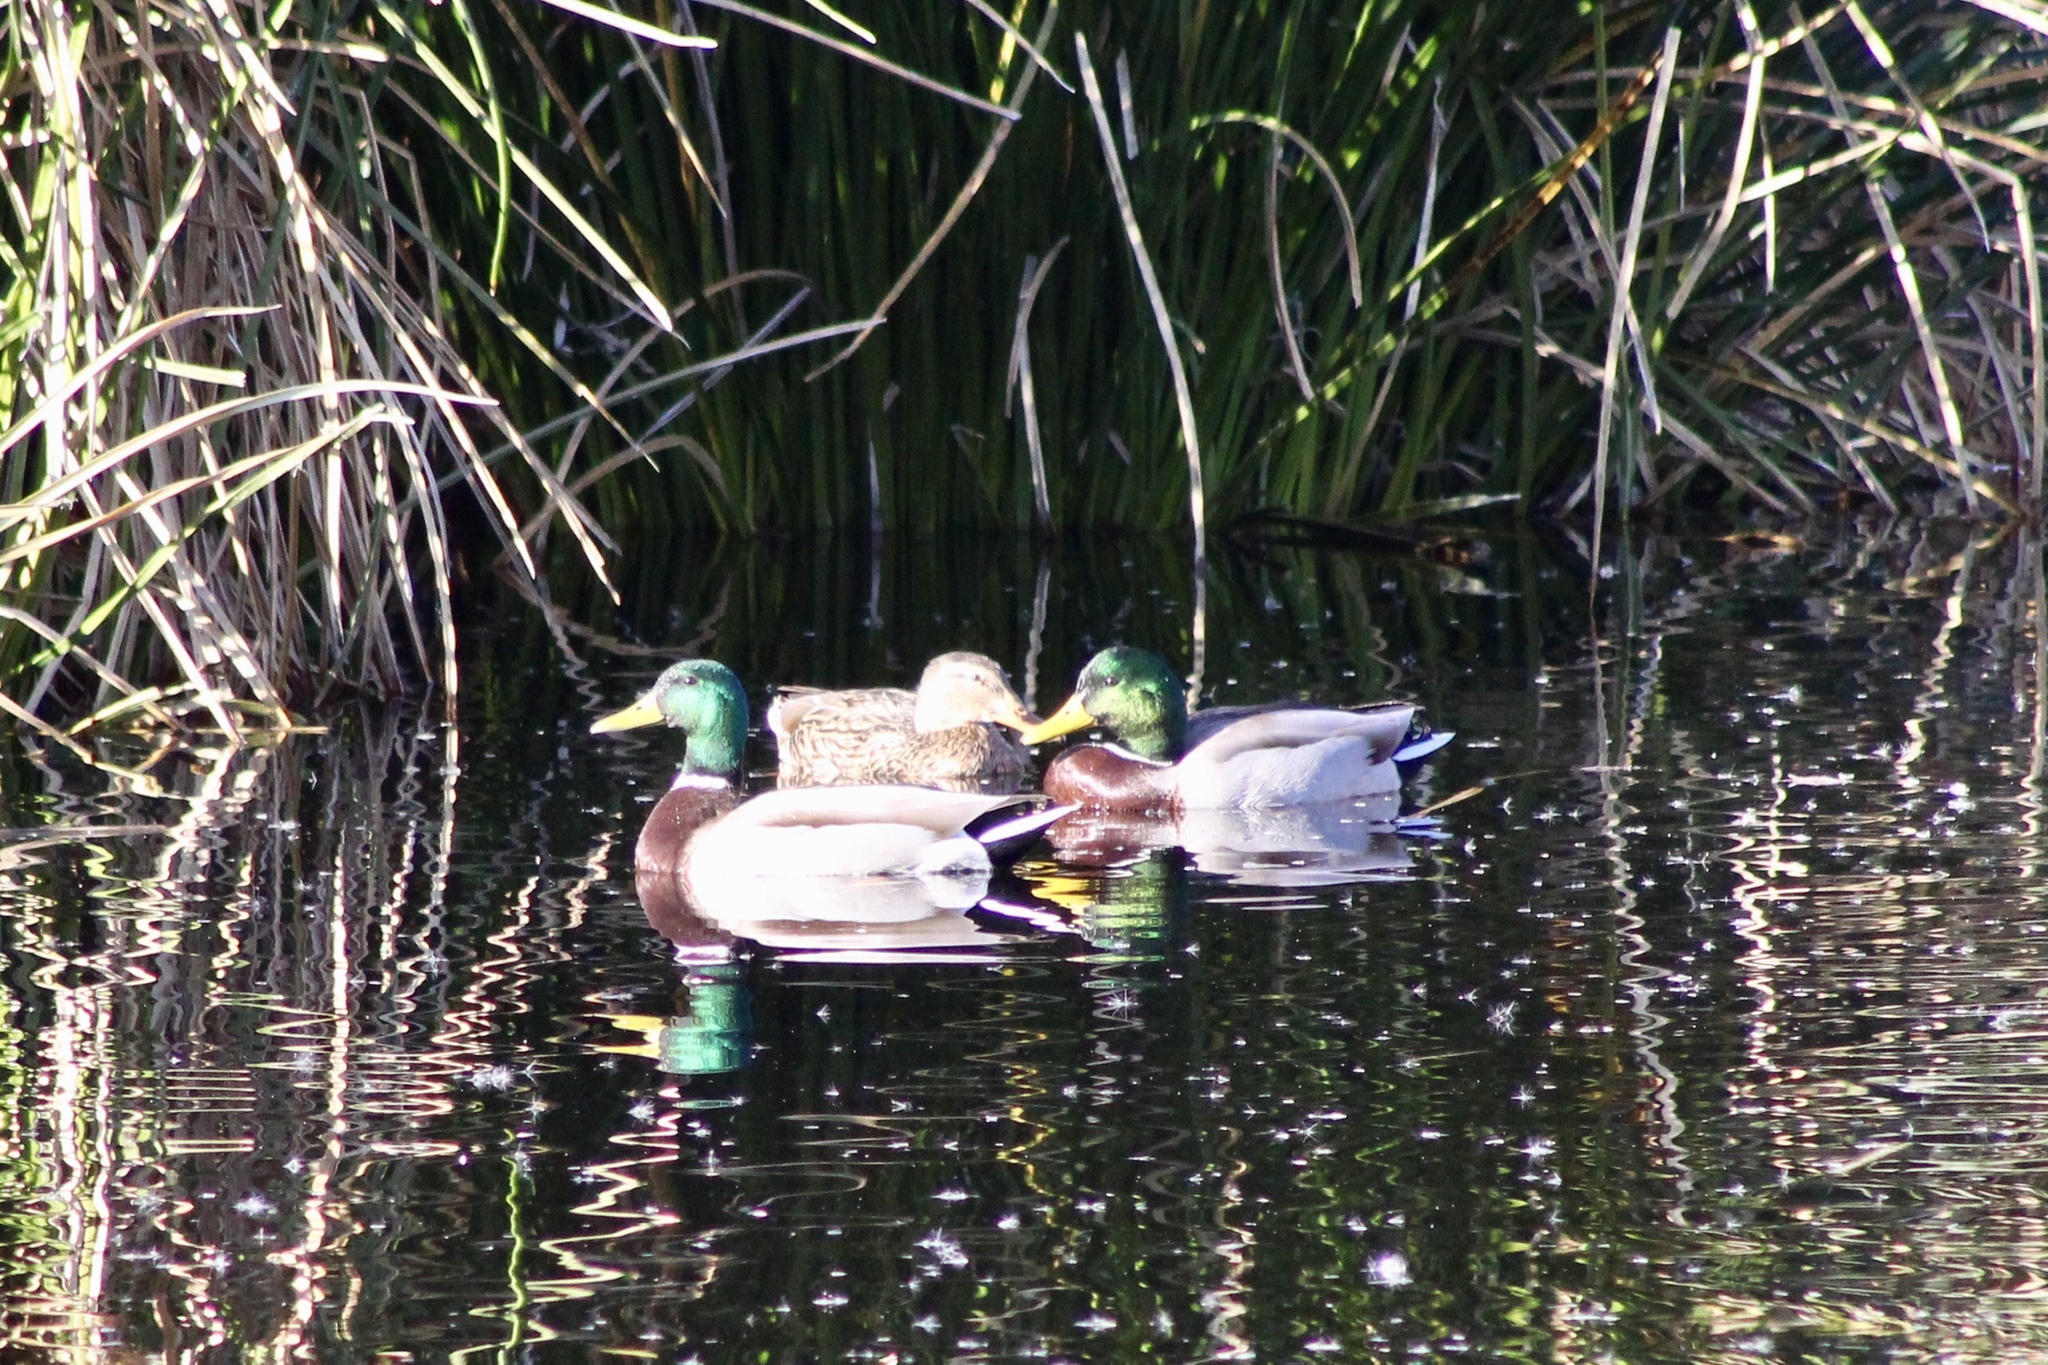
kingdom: Animalia
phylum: Chordata
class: Aves
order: Anseriformes
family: Anatidae
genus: Anas
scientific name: Anas platyrhynchos
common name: Mallard
